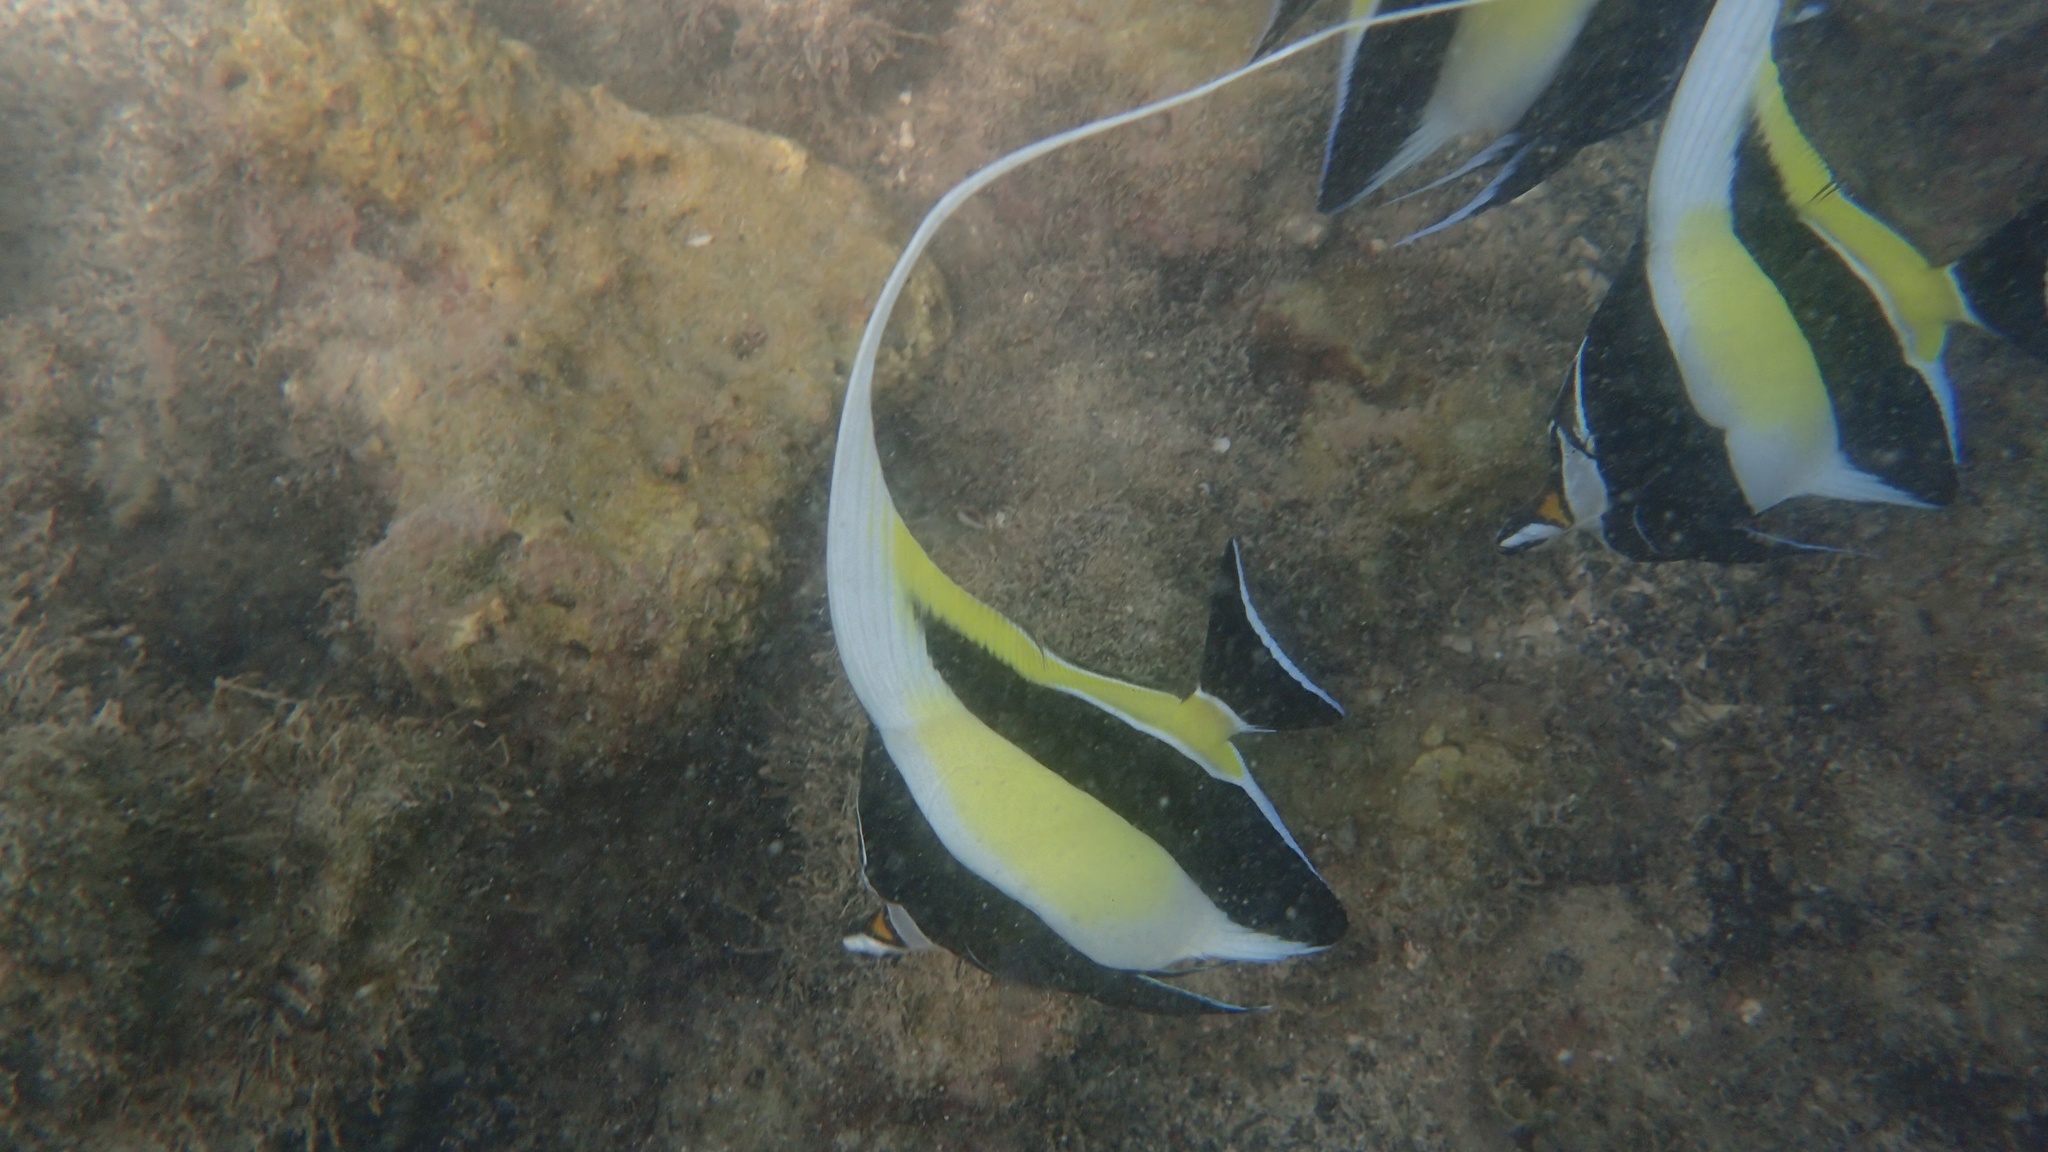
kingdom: Animalia
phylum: Chordata
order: Perciformes
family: Zanclidae
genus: Zanclus
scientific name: Zanclus cornutus
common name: Moorish idol
